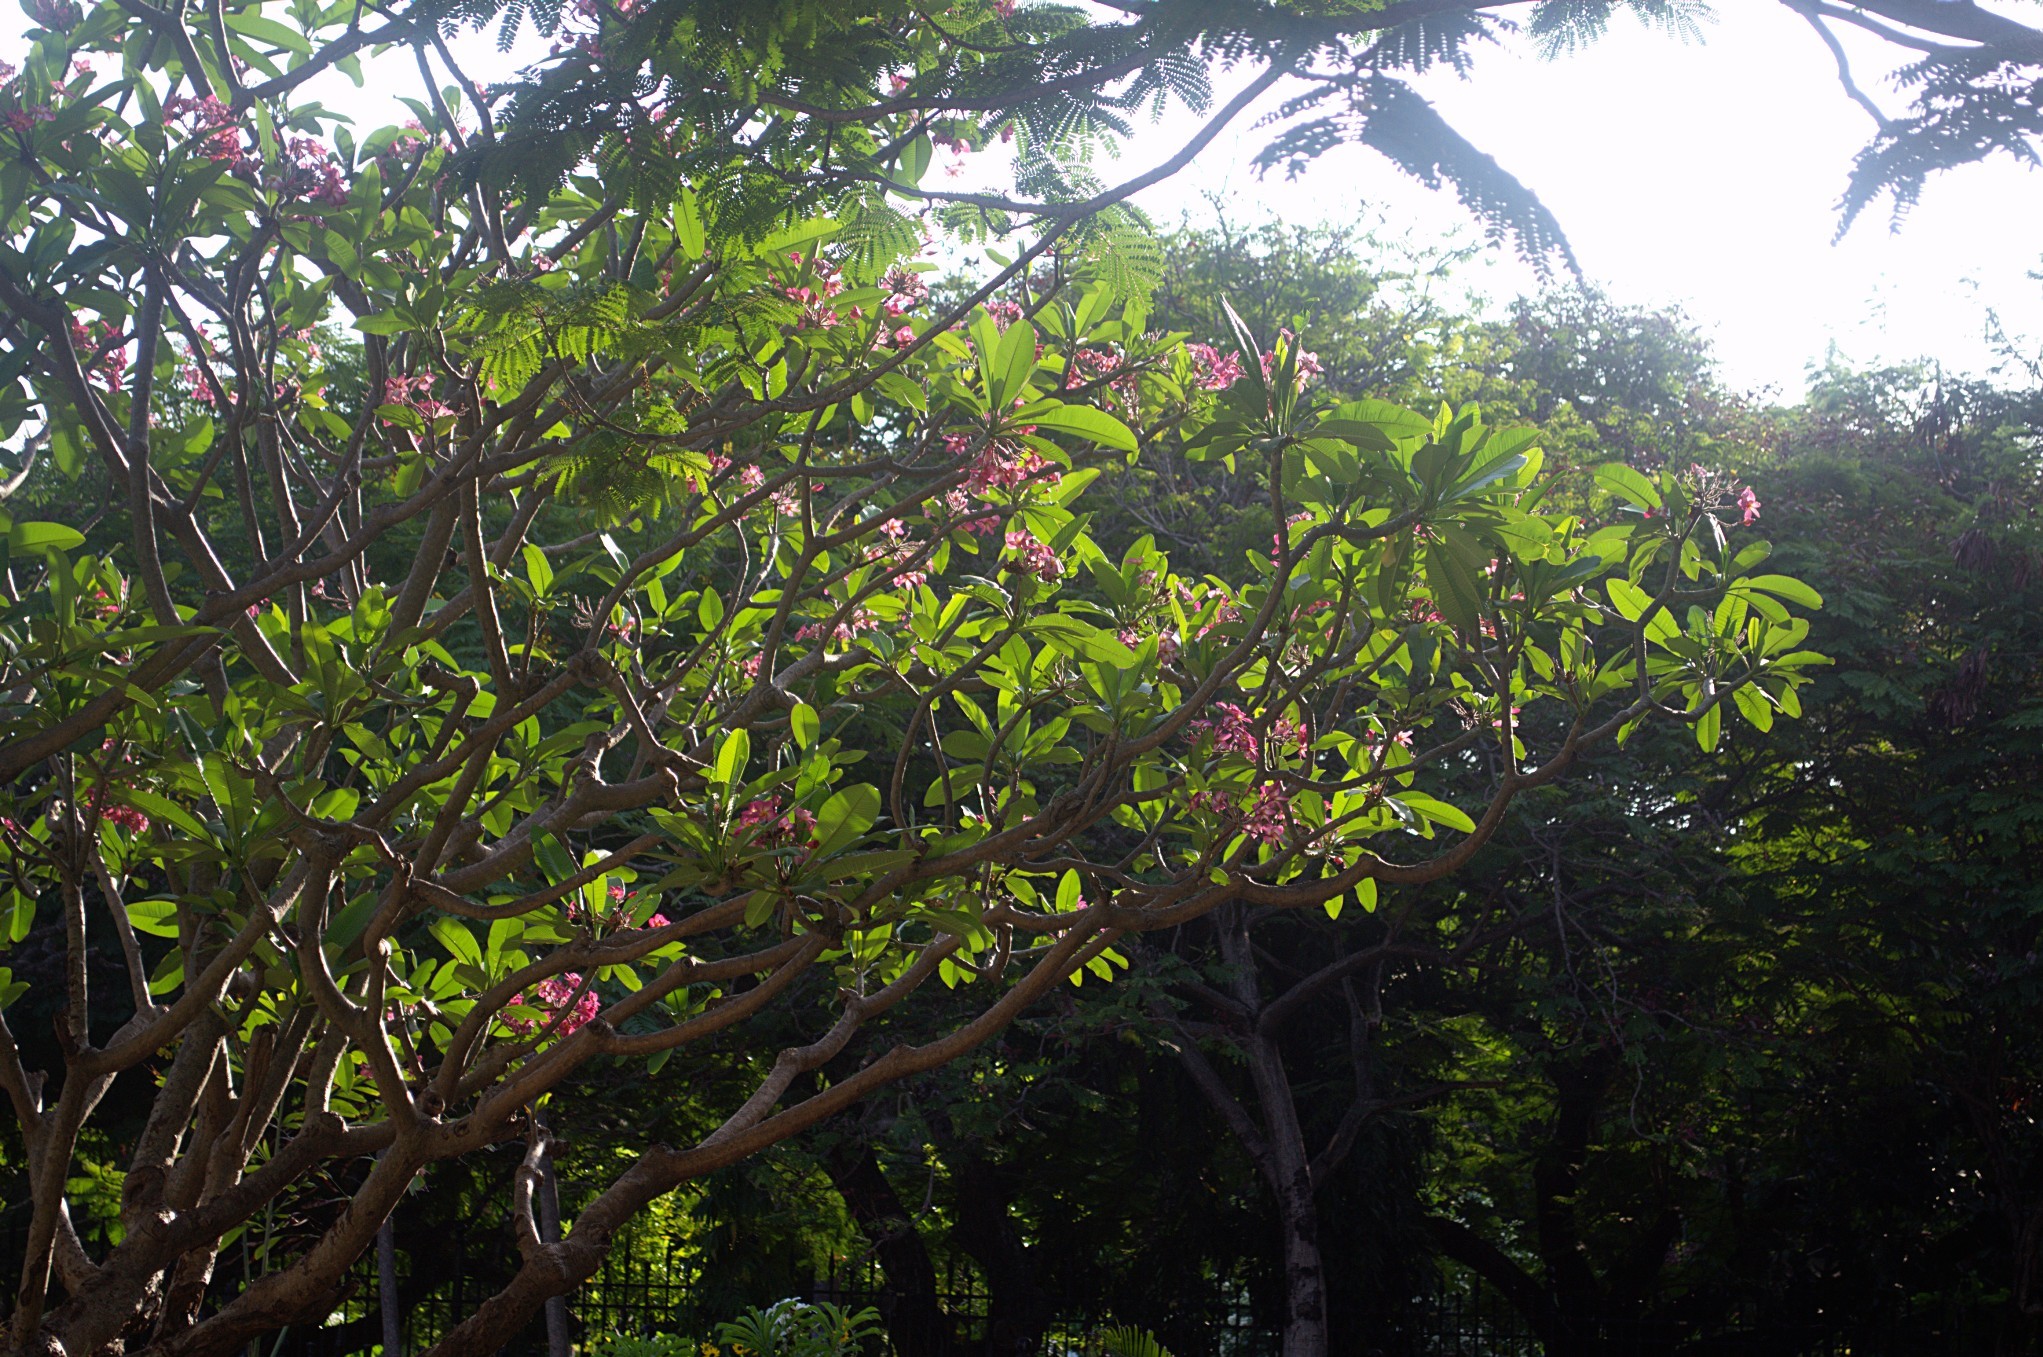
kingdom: Plantae
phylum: Tracheophyta
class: Magnoliopsida
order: Gentianales
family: Apocynaceae
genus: Plumeria
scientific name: Plumeria rubra
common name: Pagoda-tree
